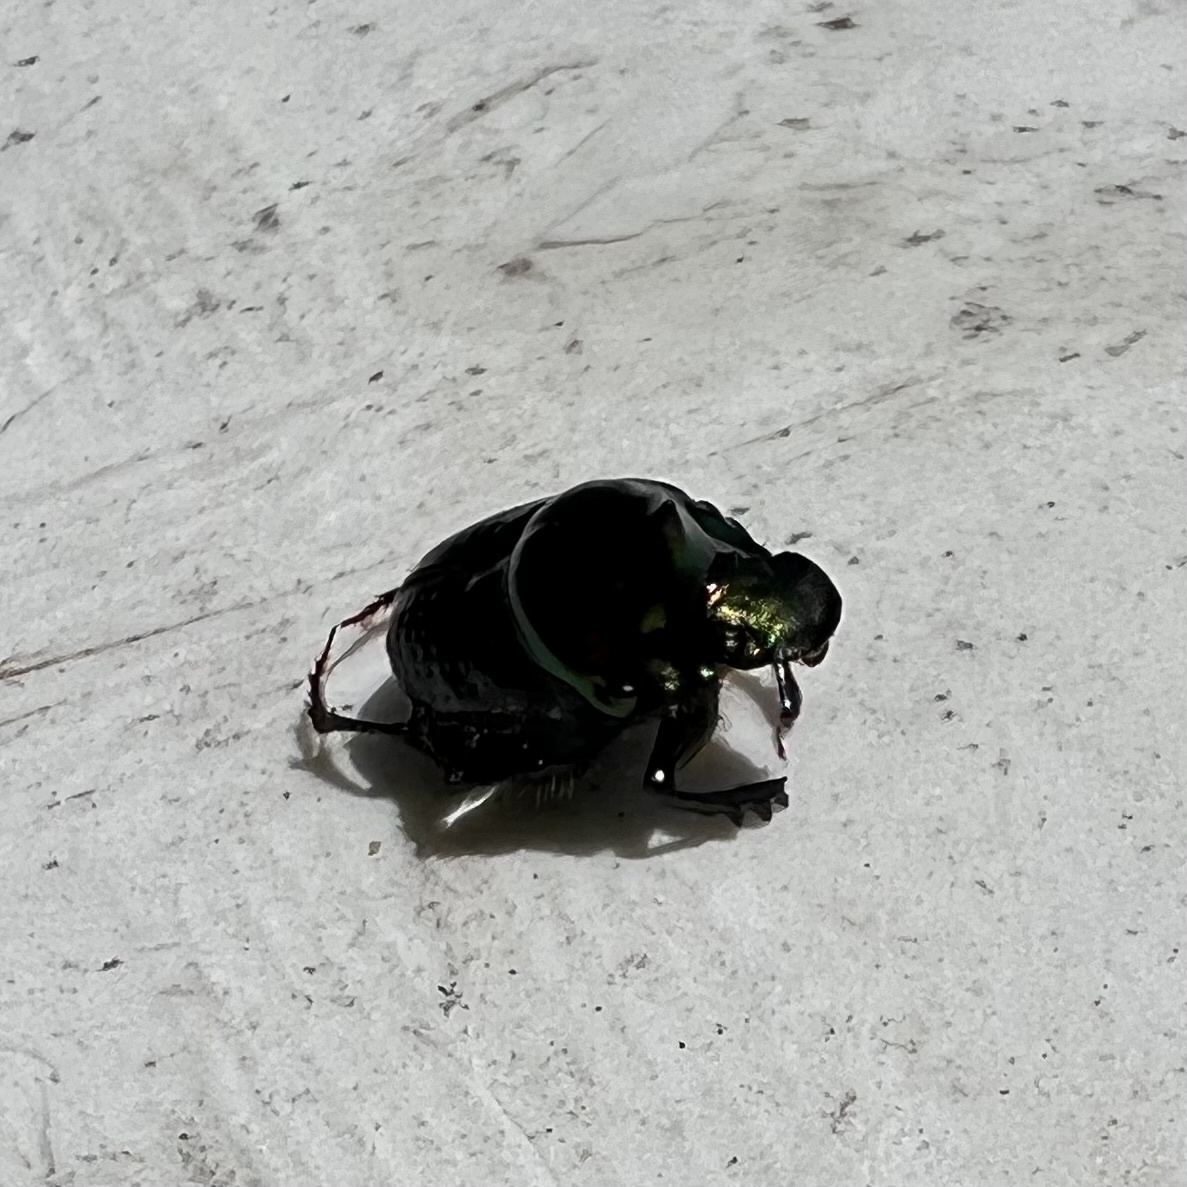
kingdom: Animalia
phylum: Arthropoda
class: Insecta
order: Coleoptera
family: Scarabaeidae
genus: Onthophagus
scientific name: Onthophagus dandalu
